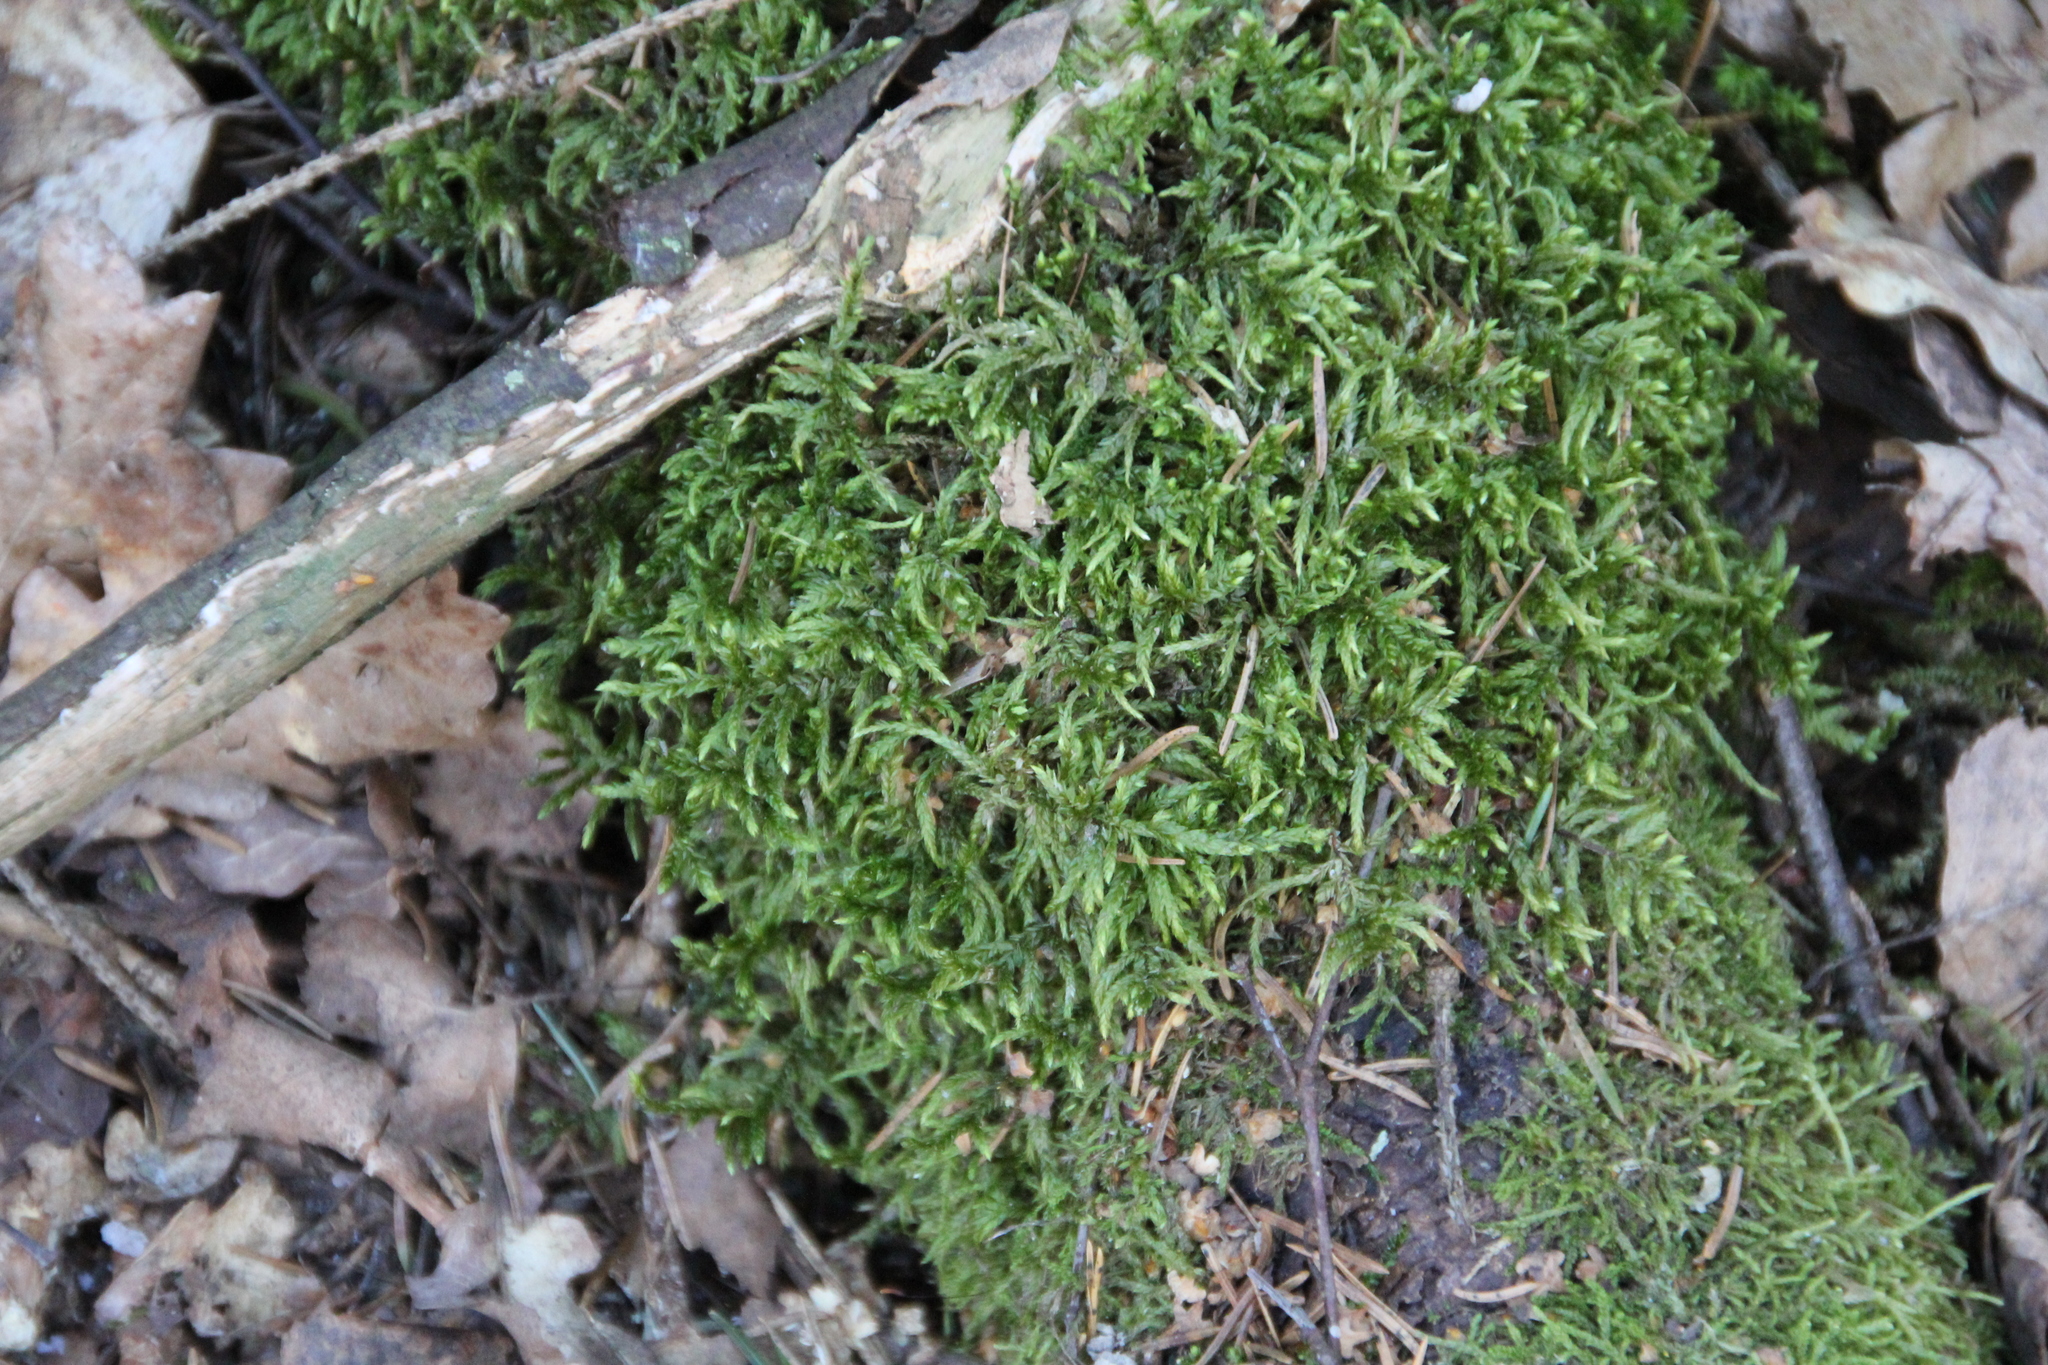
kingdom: Plantae
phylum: Bryophyta
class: Bryopsida
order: Hypnales
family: Hylocomiaceae
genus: Pleurozium
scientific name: Pleurozium schreberi
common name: Red-stemmed feather moss
